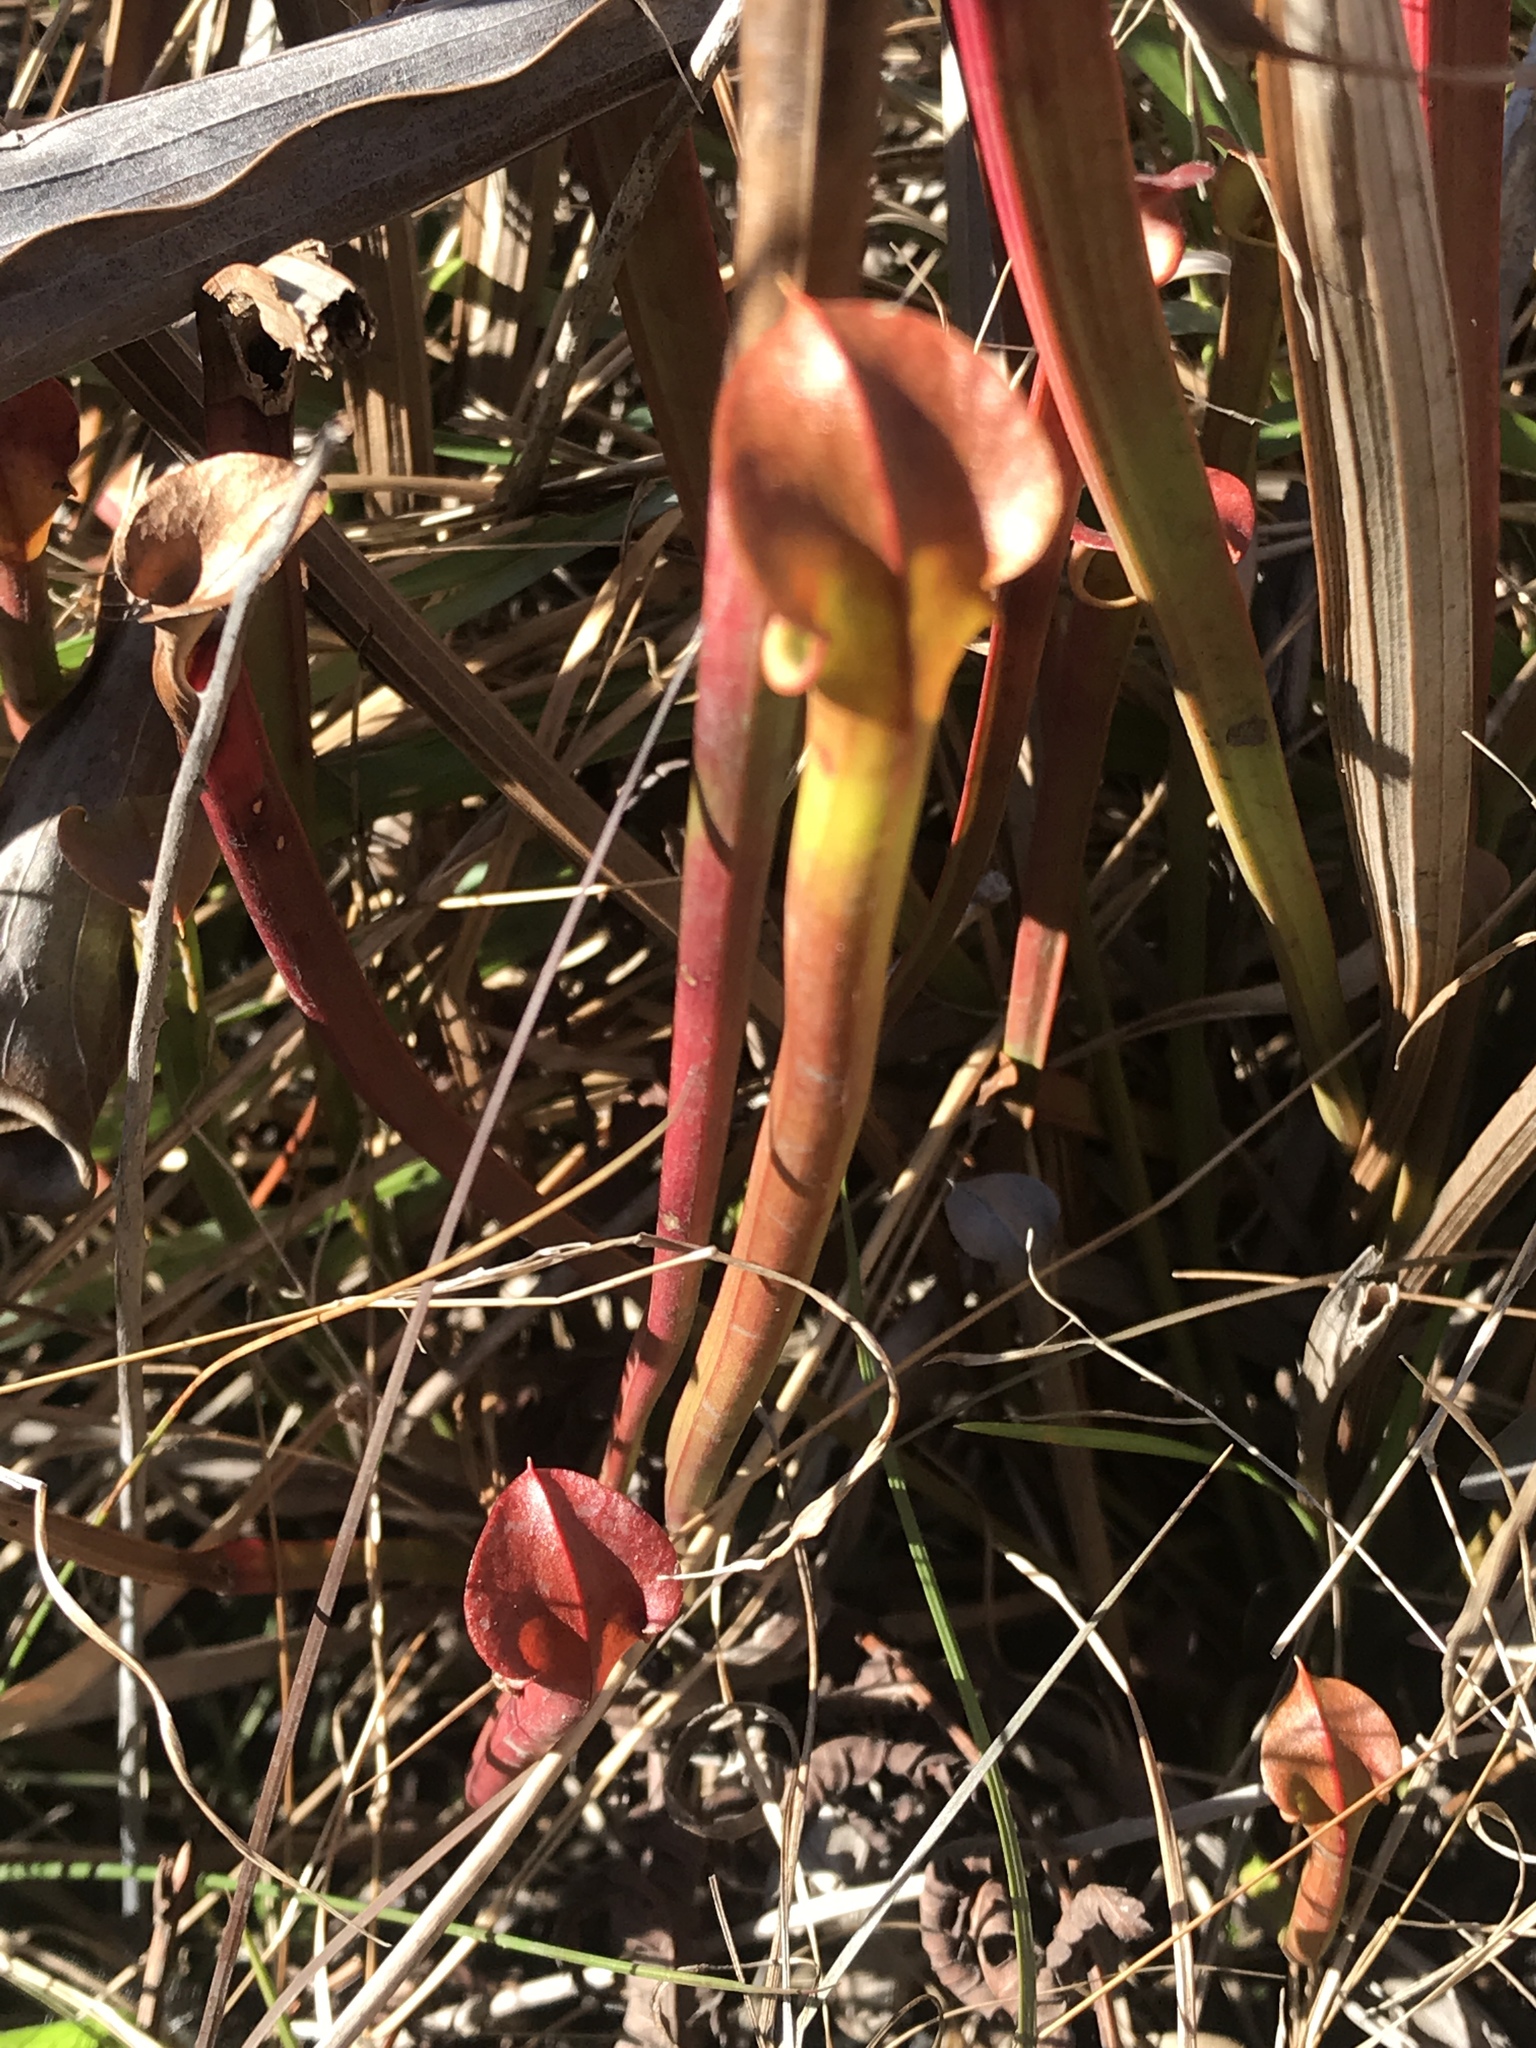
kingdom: Plantae
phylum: Tracheophyta
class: Magnoliopsida
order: Ericales
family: Sarraceniaceae
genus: Sarracenia
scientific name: Sarracenia flava
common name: Trumpets
